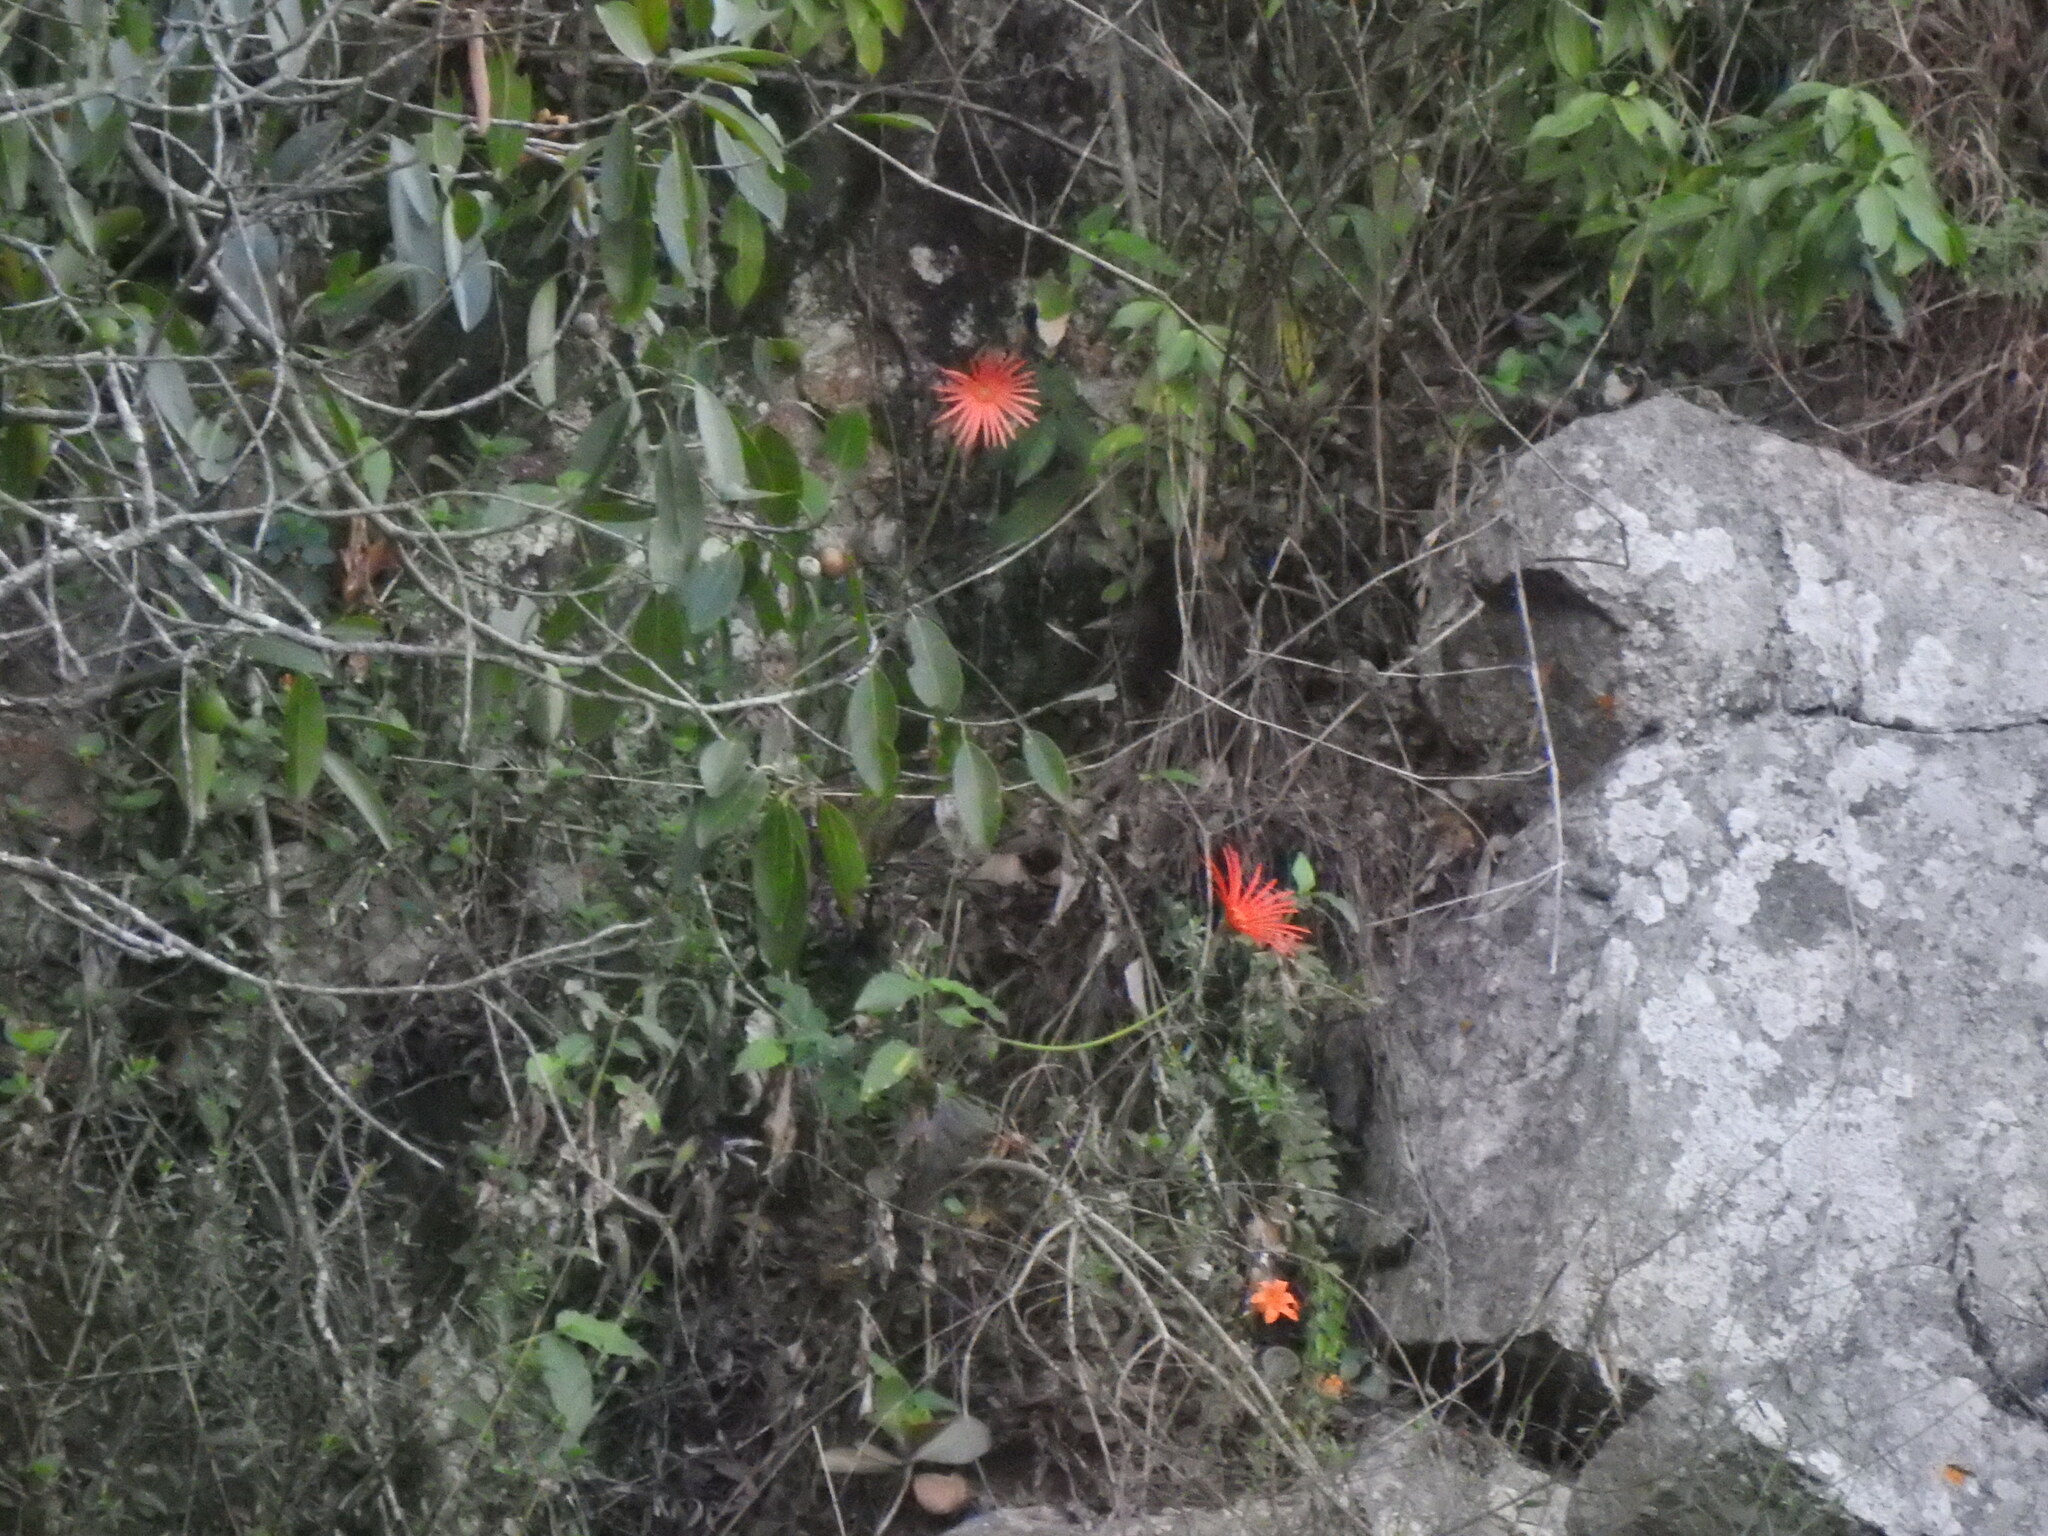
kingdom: Plantae
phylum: Tracheophyta
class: Magnoliopsida
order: Asterales
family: Asteraceae
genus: Gerbera
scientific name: Gerbera jamesonii
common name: African daisy
